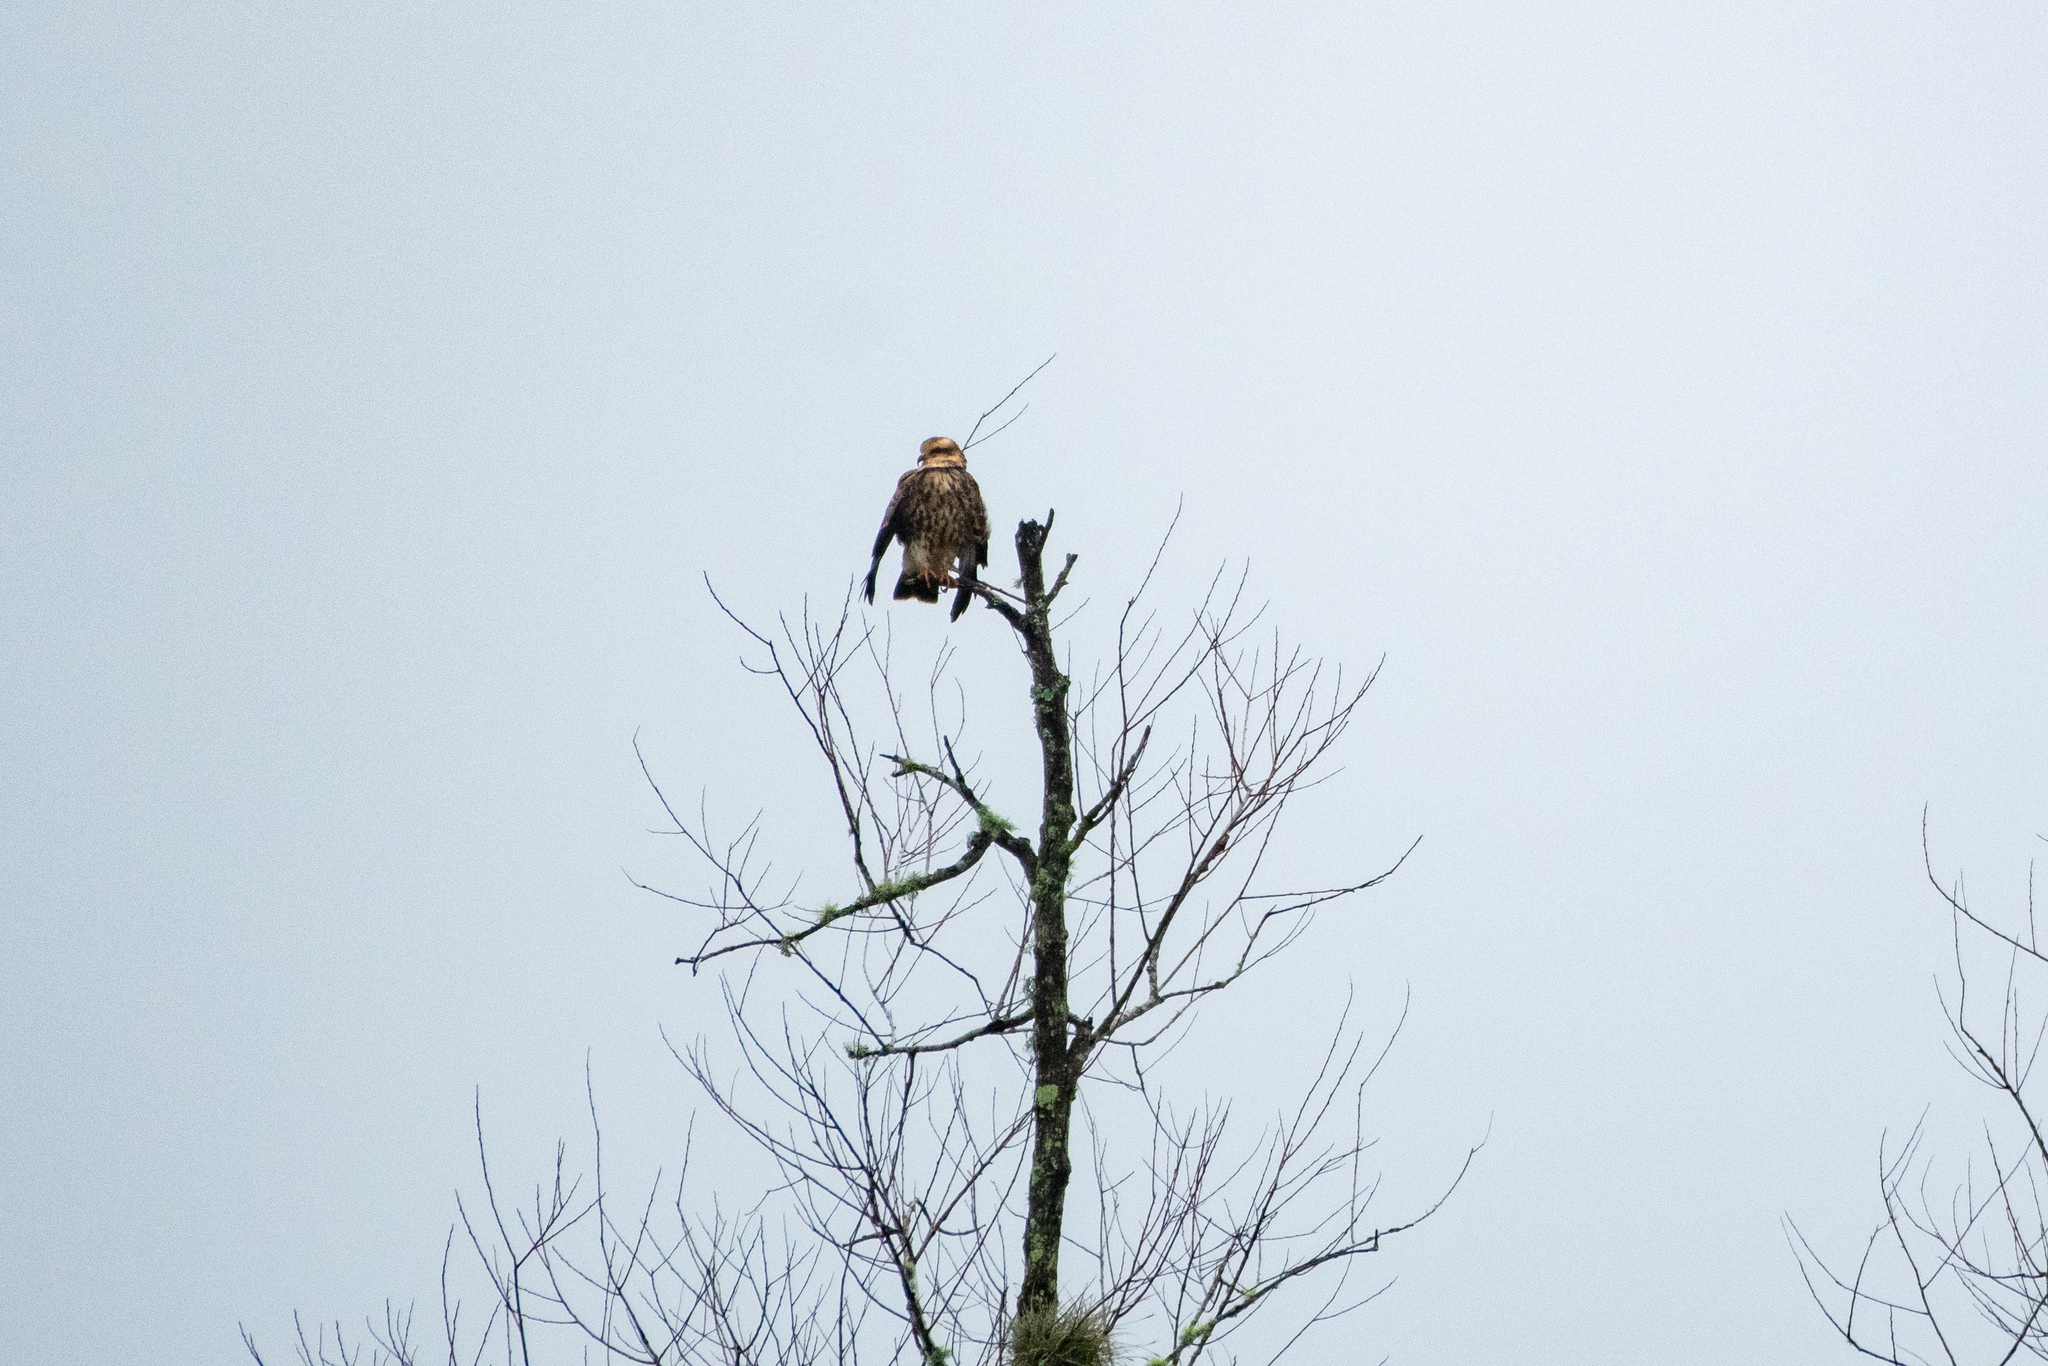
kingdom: Animalia
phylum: Chordata
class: Aves
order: Accipitriformes
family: Accipitridae
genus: Rostrhamus
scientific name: Rostrhamus sociabilis
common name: Snail kite
